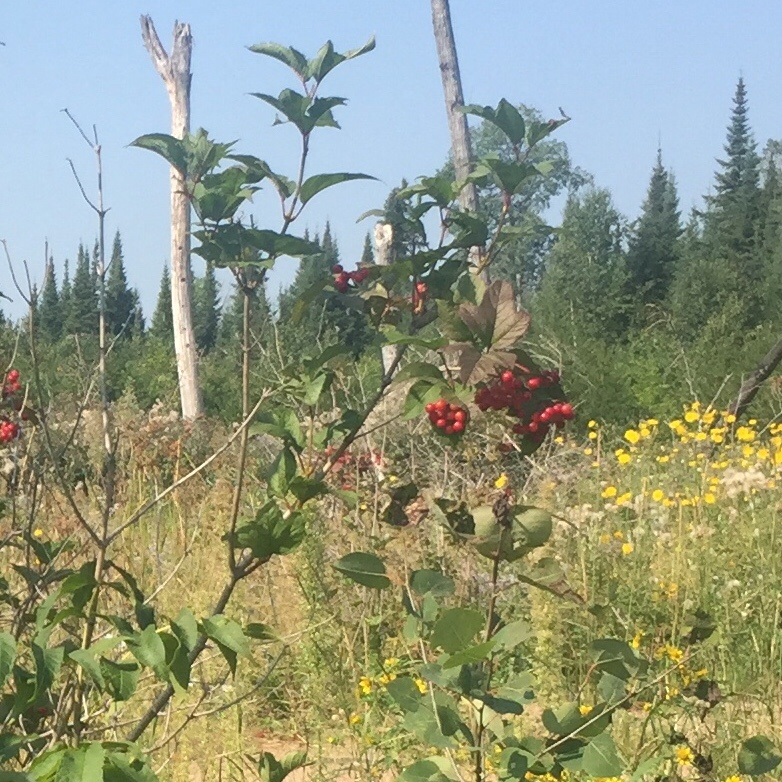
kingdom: Plantae
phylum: Tracheophyta
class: Magnoliopsida
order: Dipsacales
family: Viburnaceae
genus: Viburnum
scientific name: Viburnum opulus
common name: Guelder-rose
